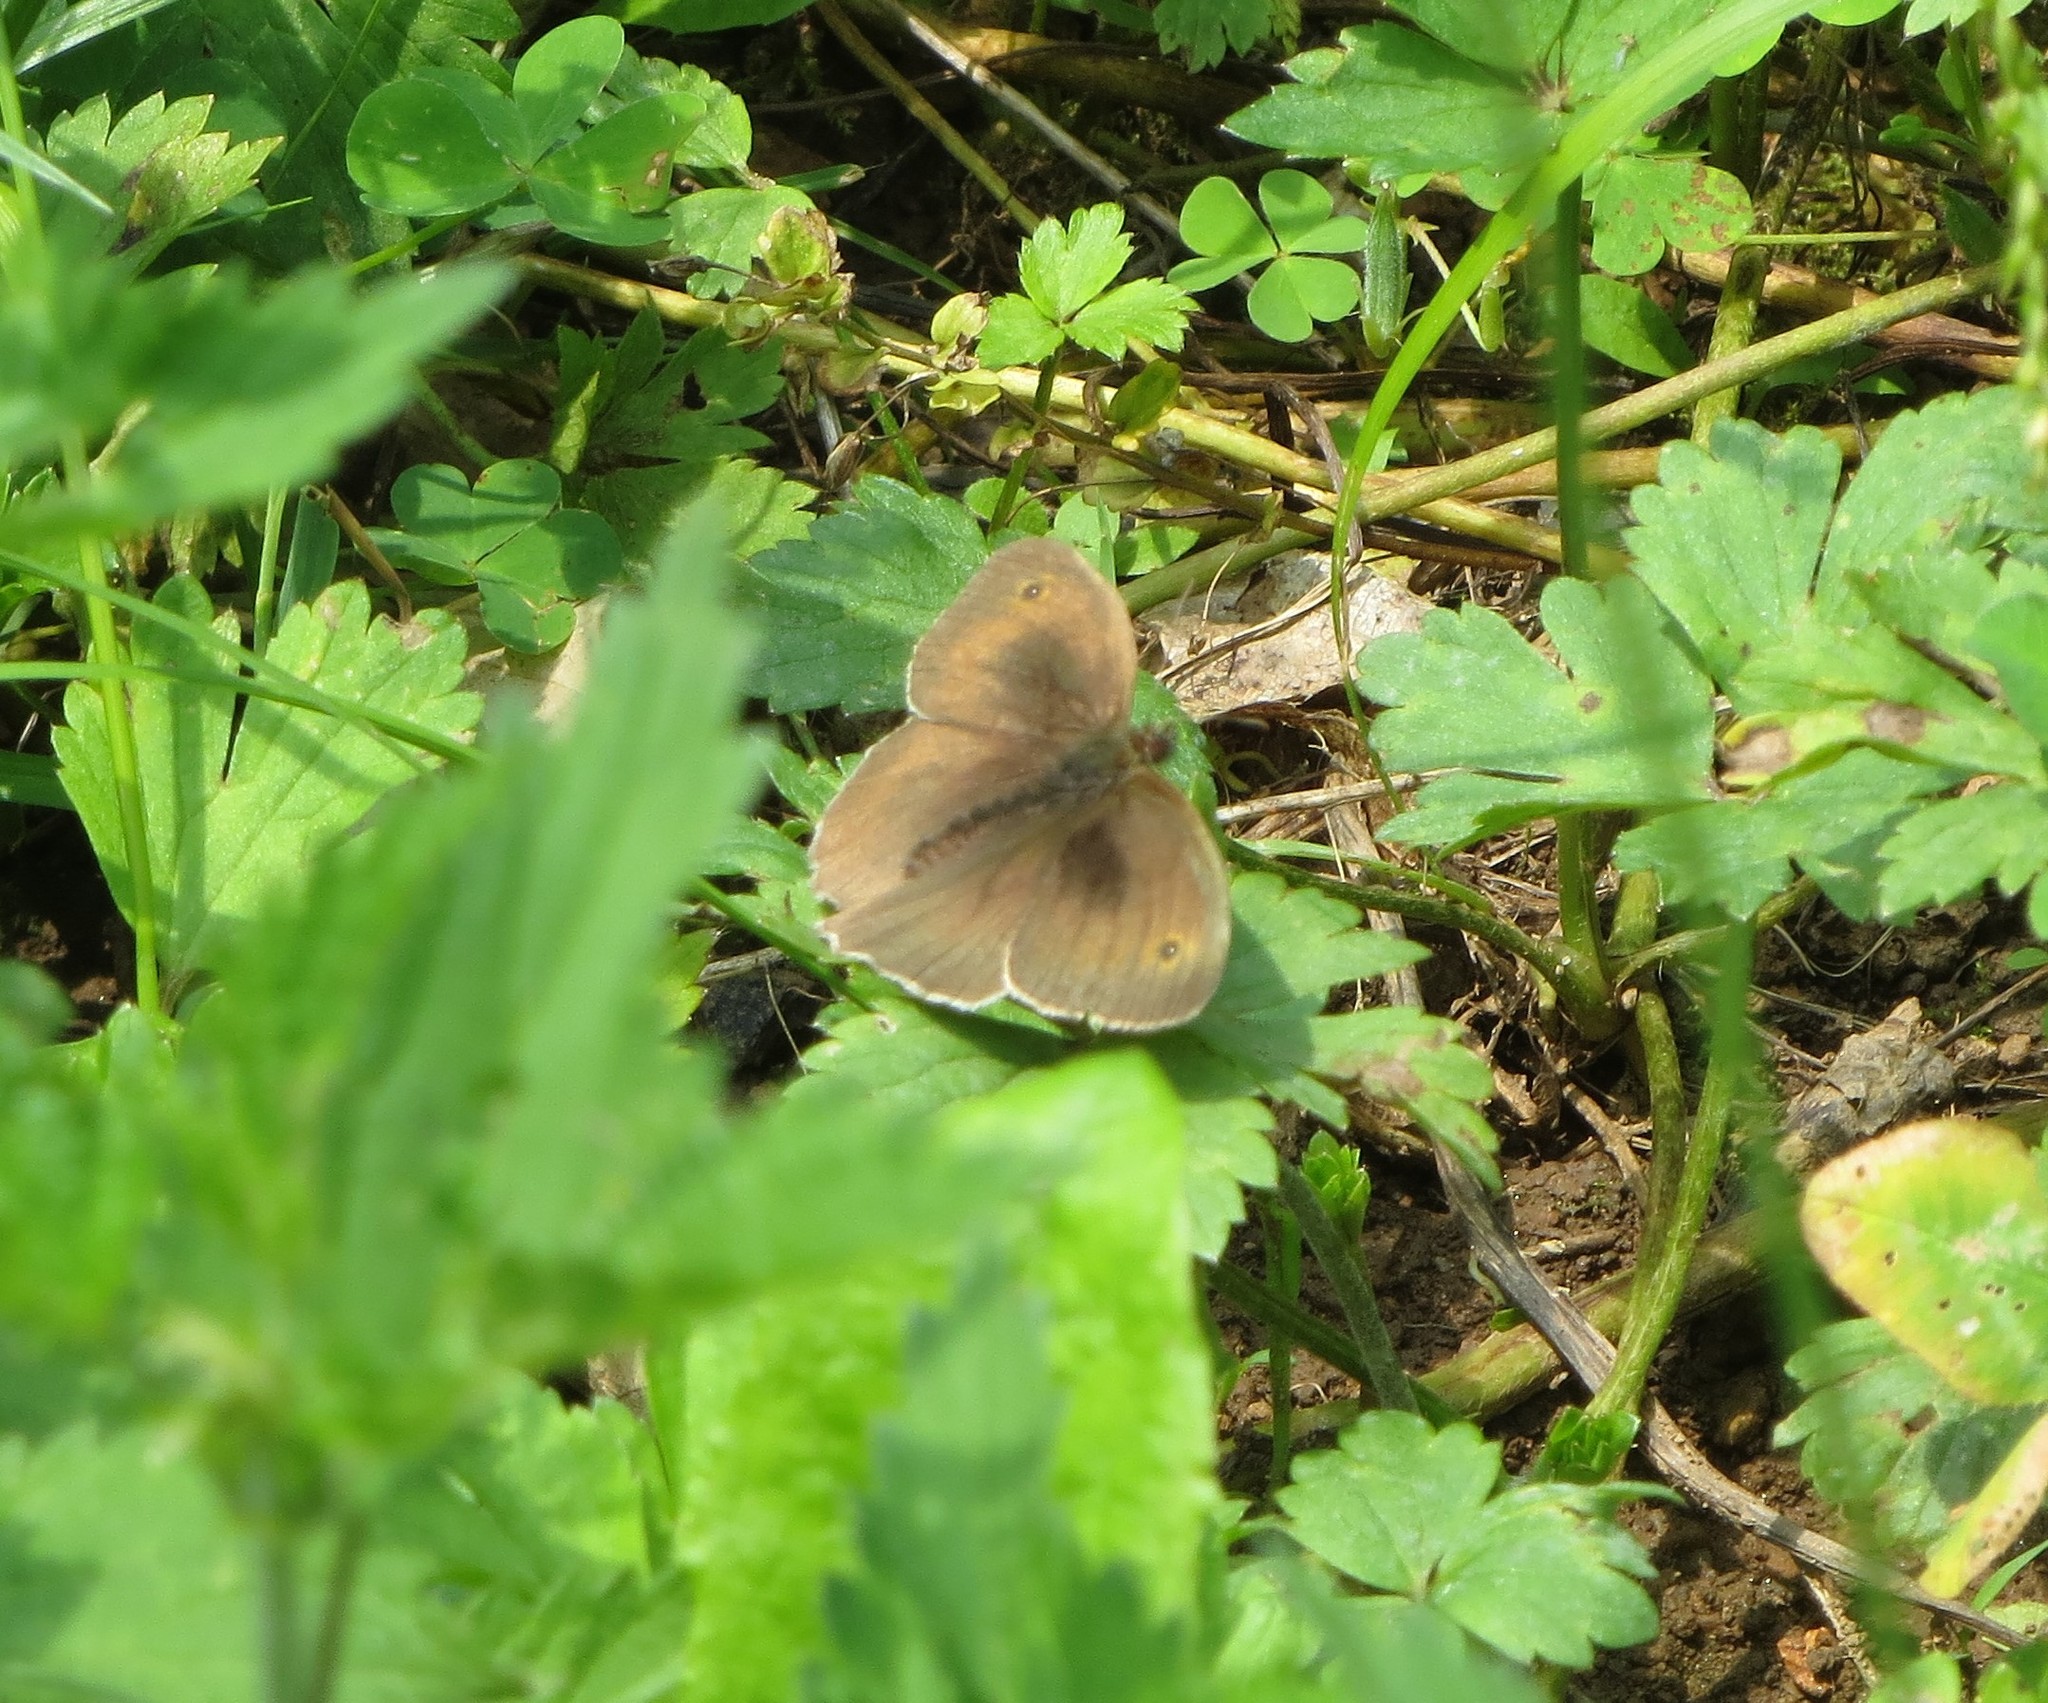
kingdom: Animalia
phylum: Arthropoda
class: Insecta
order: Lepidoptera
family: Nymphalidae
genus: Maniola
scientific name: Maniola jurtina
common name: Meadow brown
